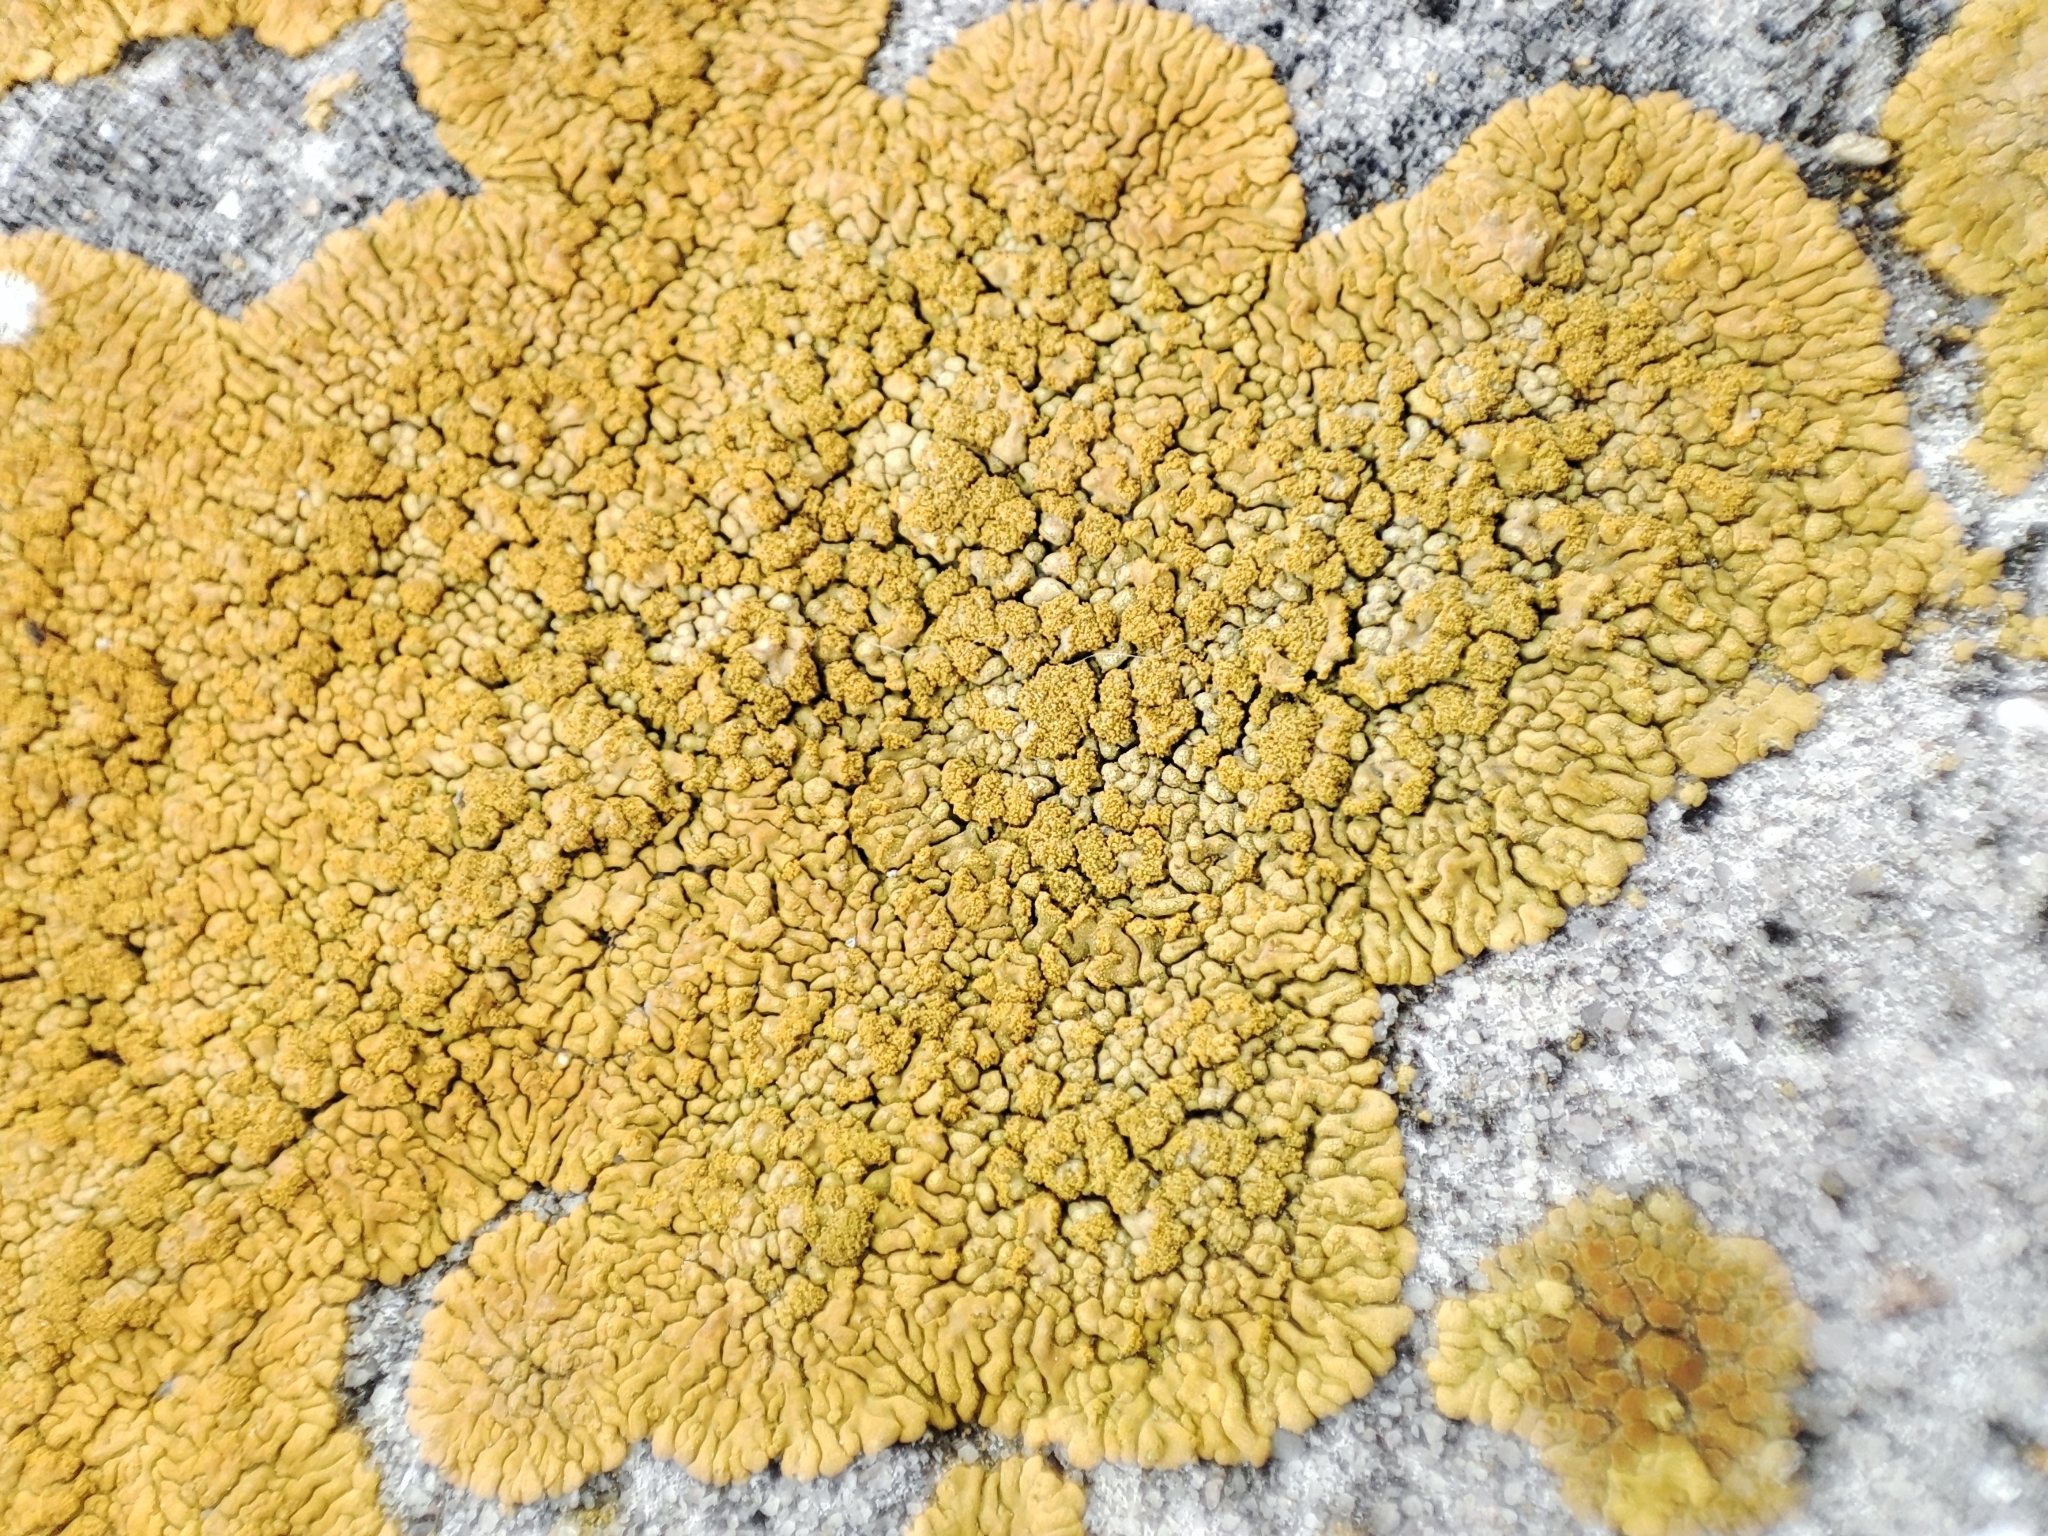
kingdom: Fungi
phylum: Ascomycota
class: Lecanoromycetes
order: Teloschistales
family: Teloschistaceae
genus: Calogaya
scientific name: Calogaya decipiens
